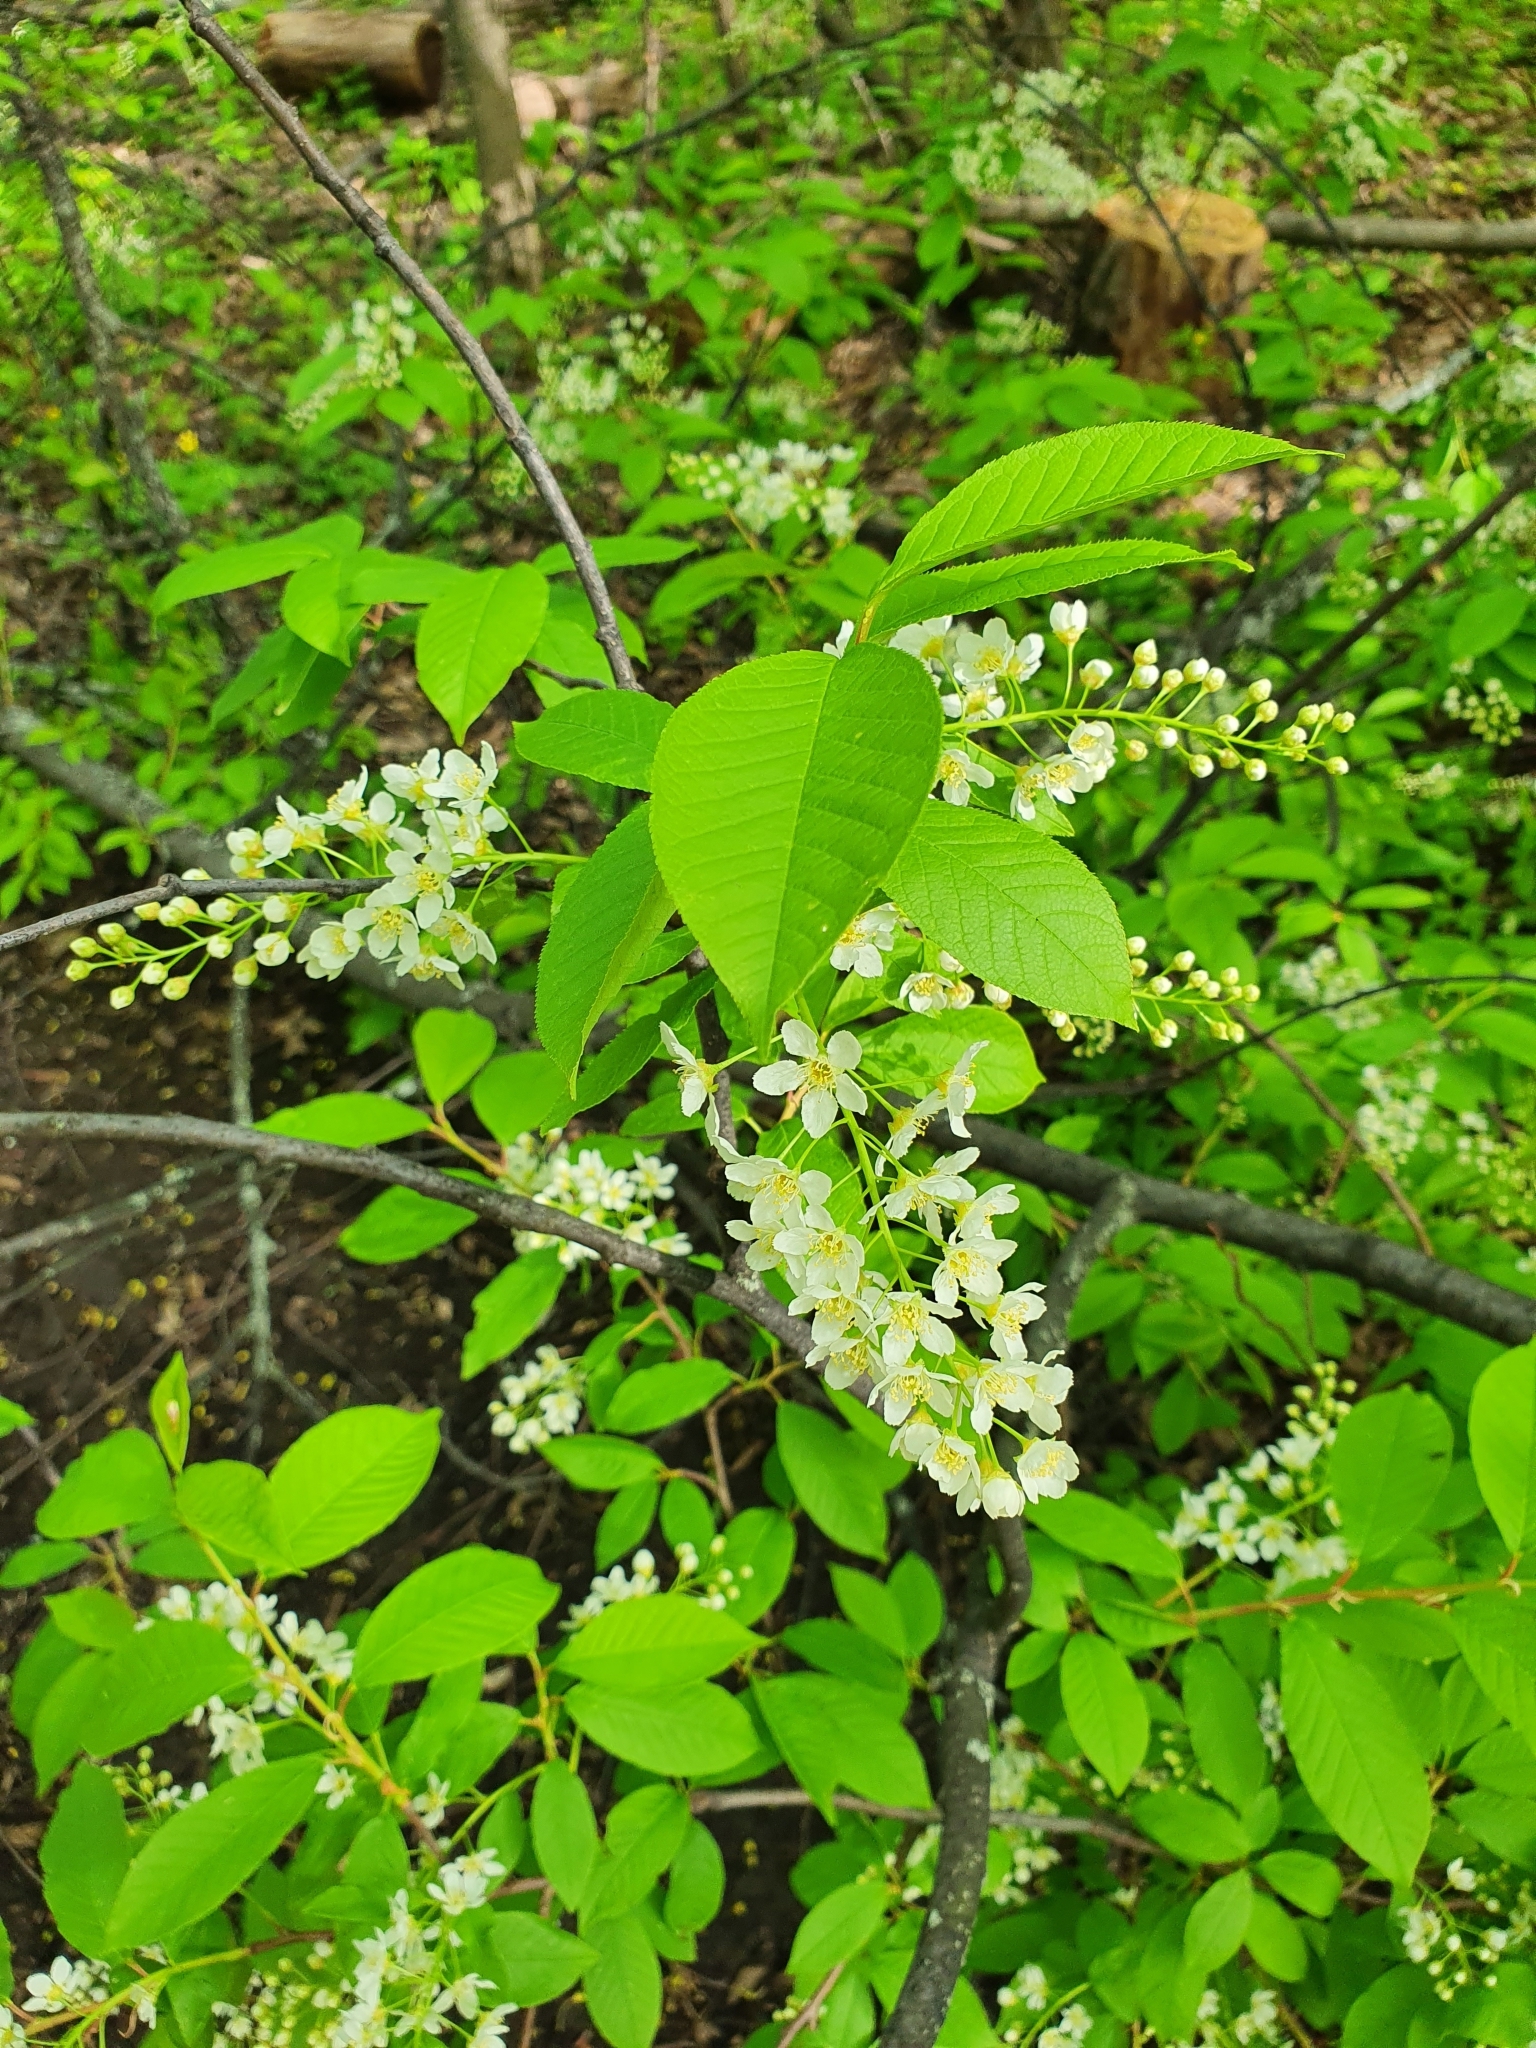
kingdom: Plantae
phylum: Tracheophyta
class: Magnoliopsida
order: Rosales
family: Rosaceae
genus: Prunus
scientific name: Prunus padus
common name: Bird cherry
